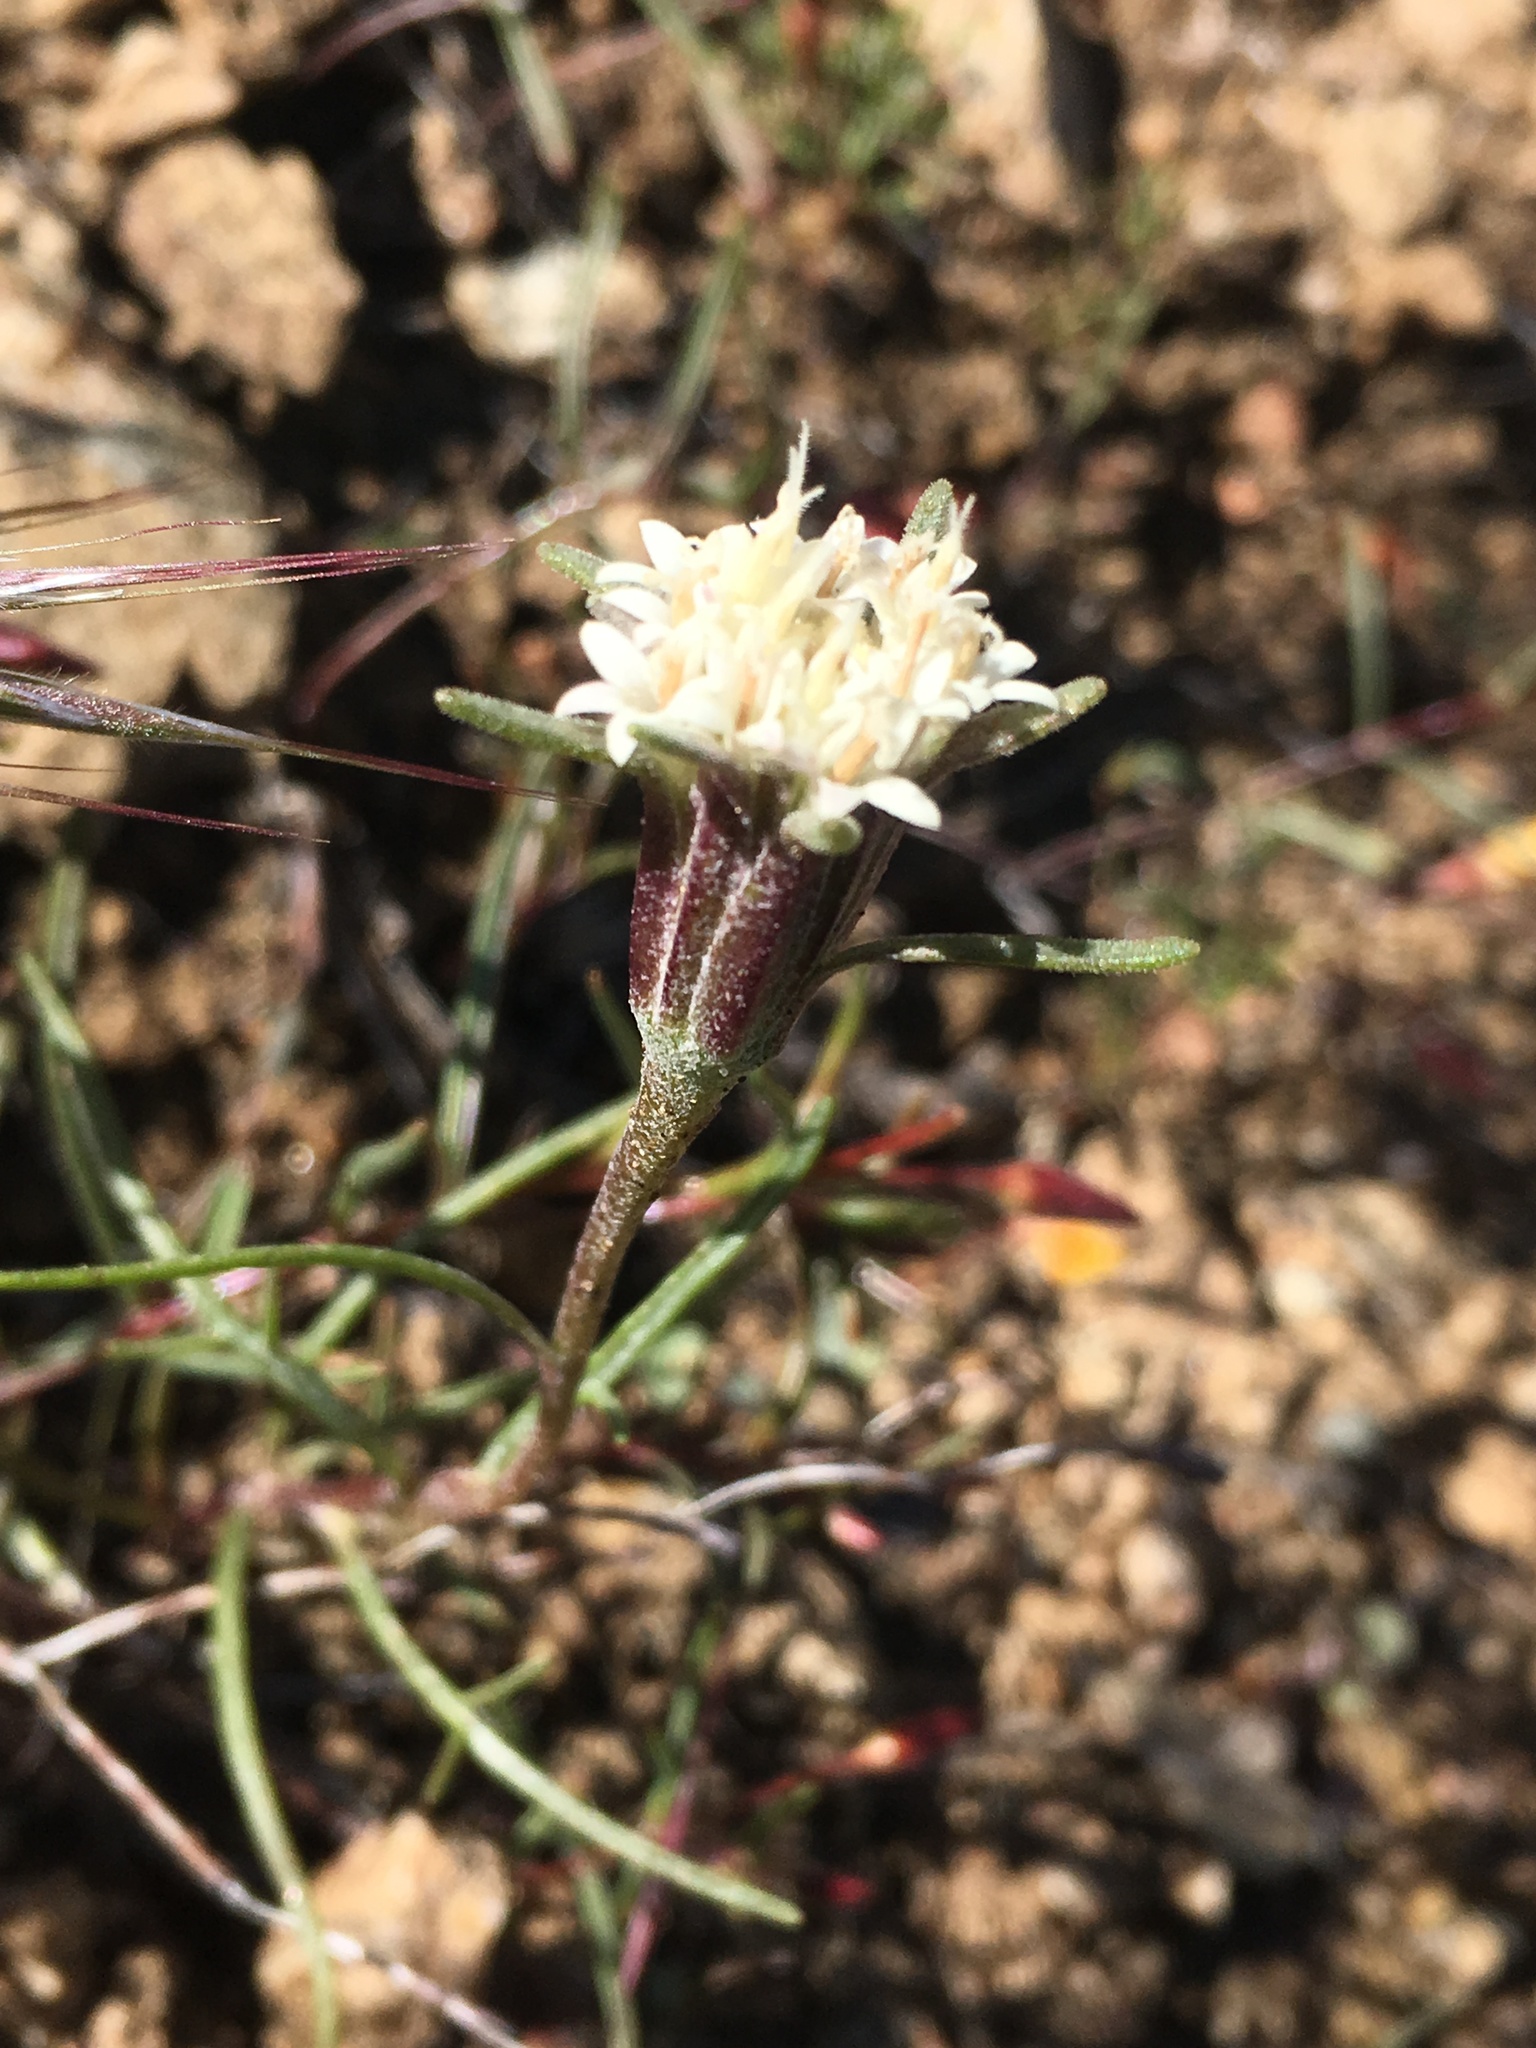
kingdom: Plantae
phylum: Tracheophyta
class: Magnoliopsida
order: Asterales
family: Asteraceae
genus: Chaenactis
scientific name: Chaenactis xantiana
